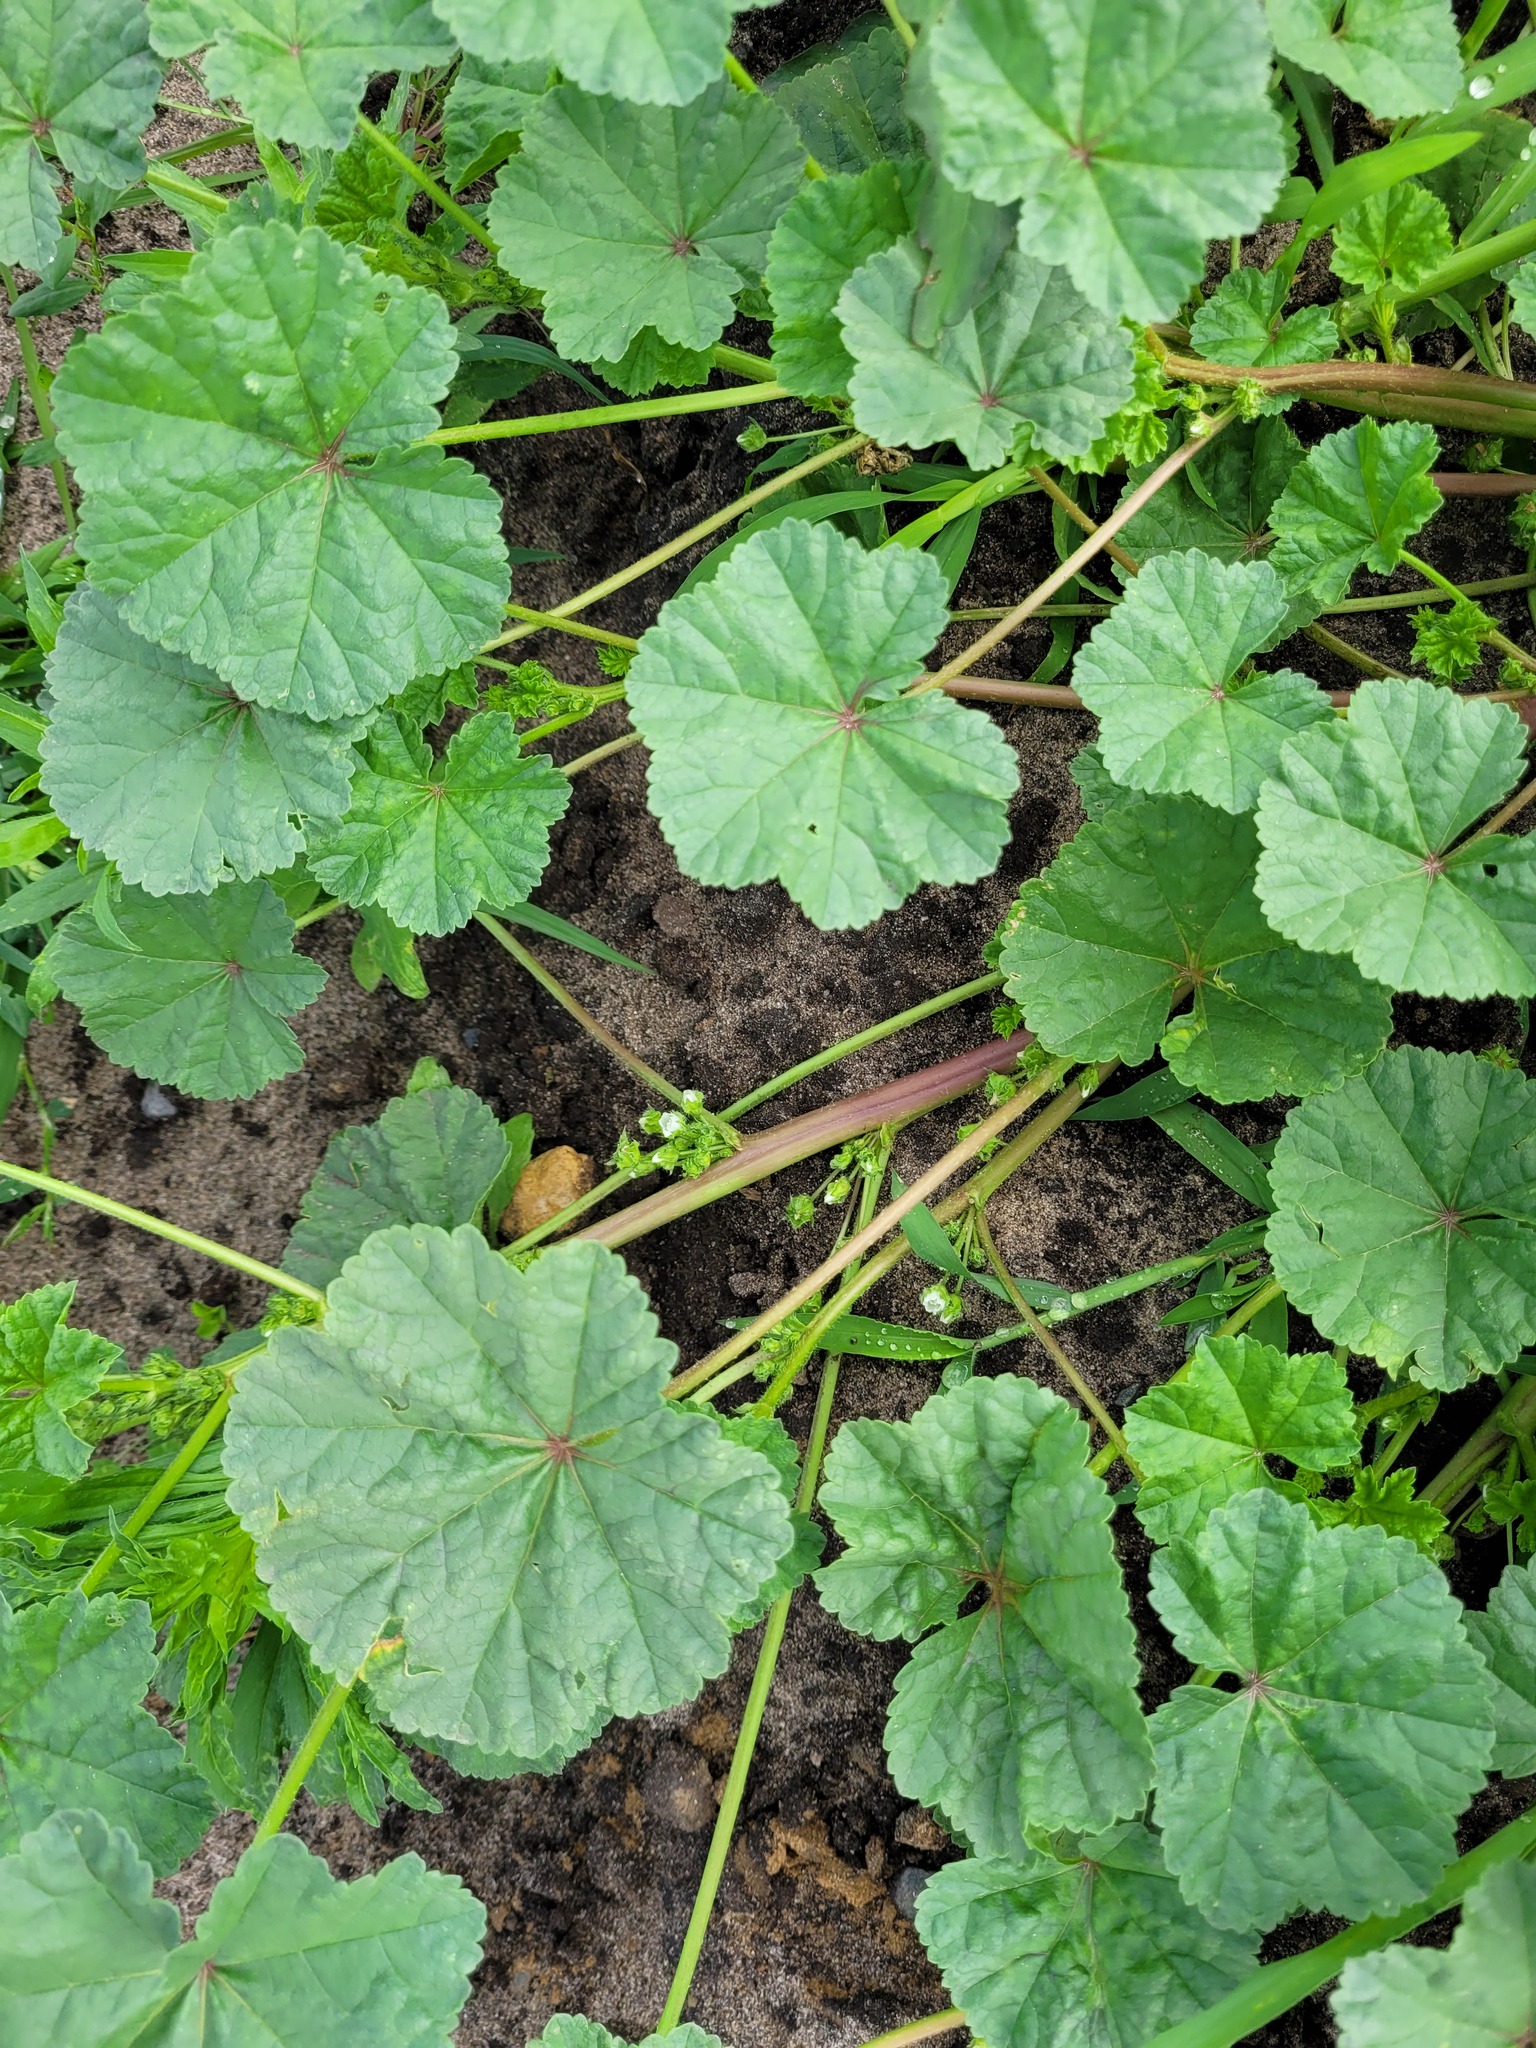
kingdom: Plantae
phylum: Tracheophyta
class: Magnoliopsida
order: Malvales
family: Malvaceae
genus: Malva
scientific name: Malva pusilla
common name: Small mallow
